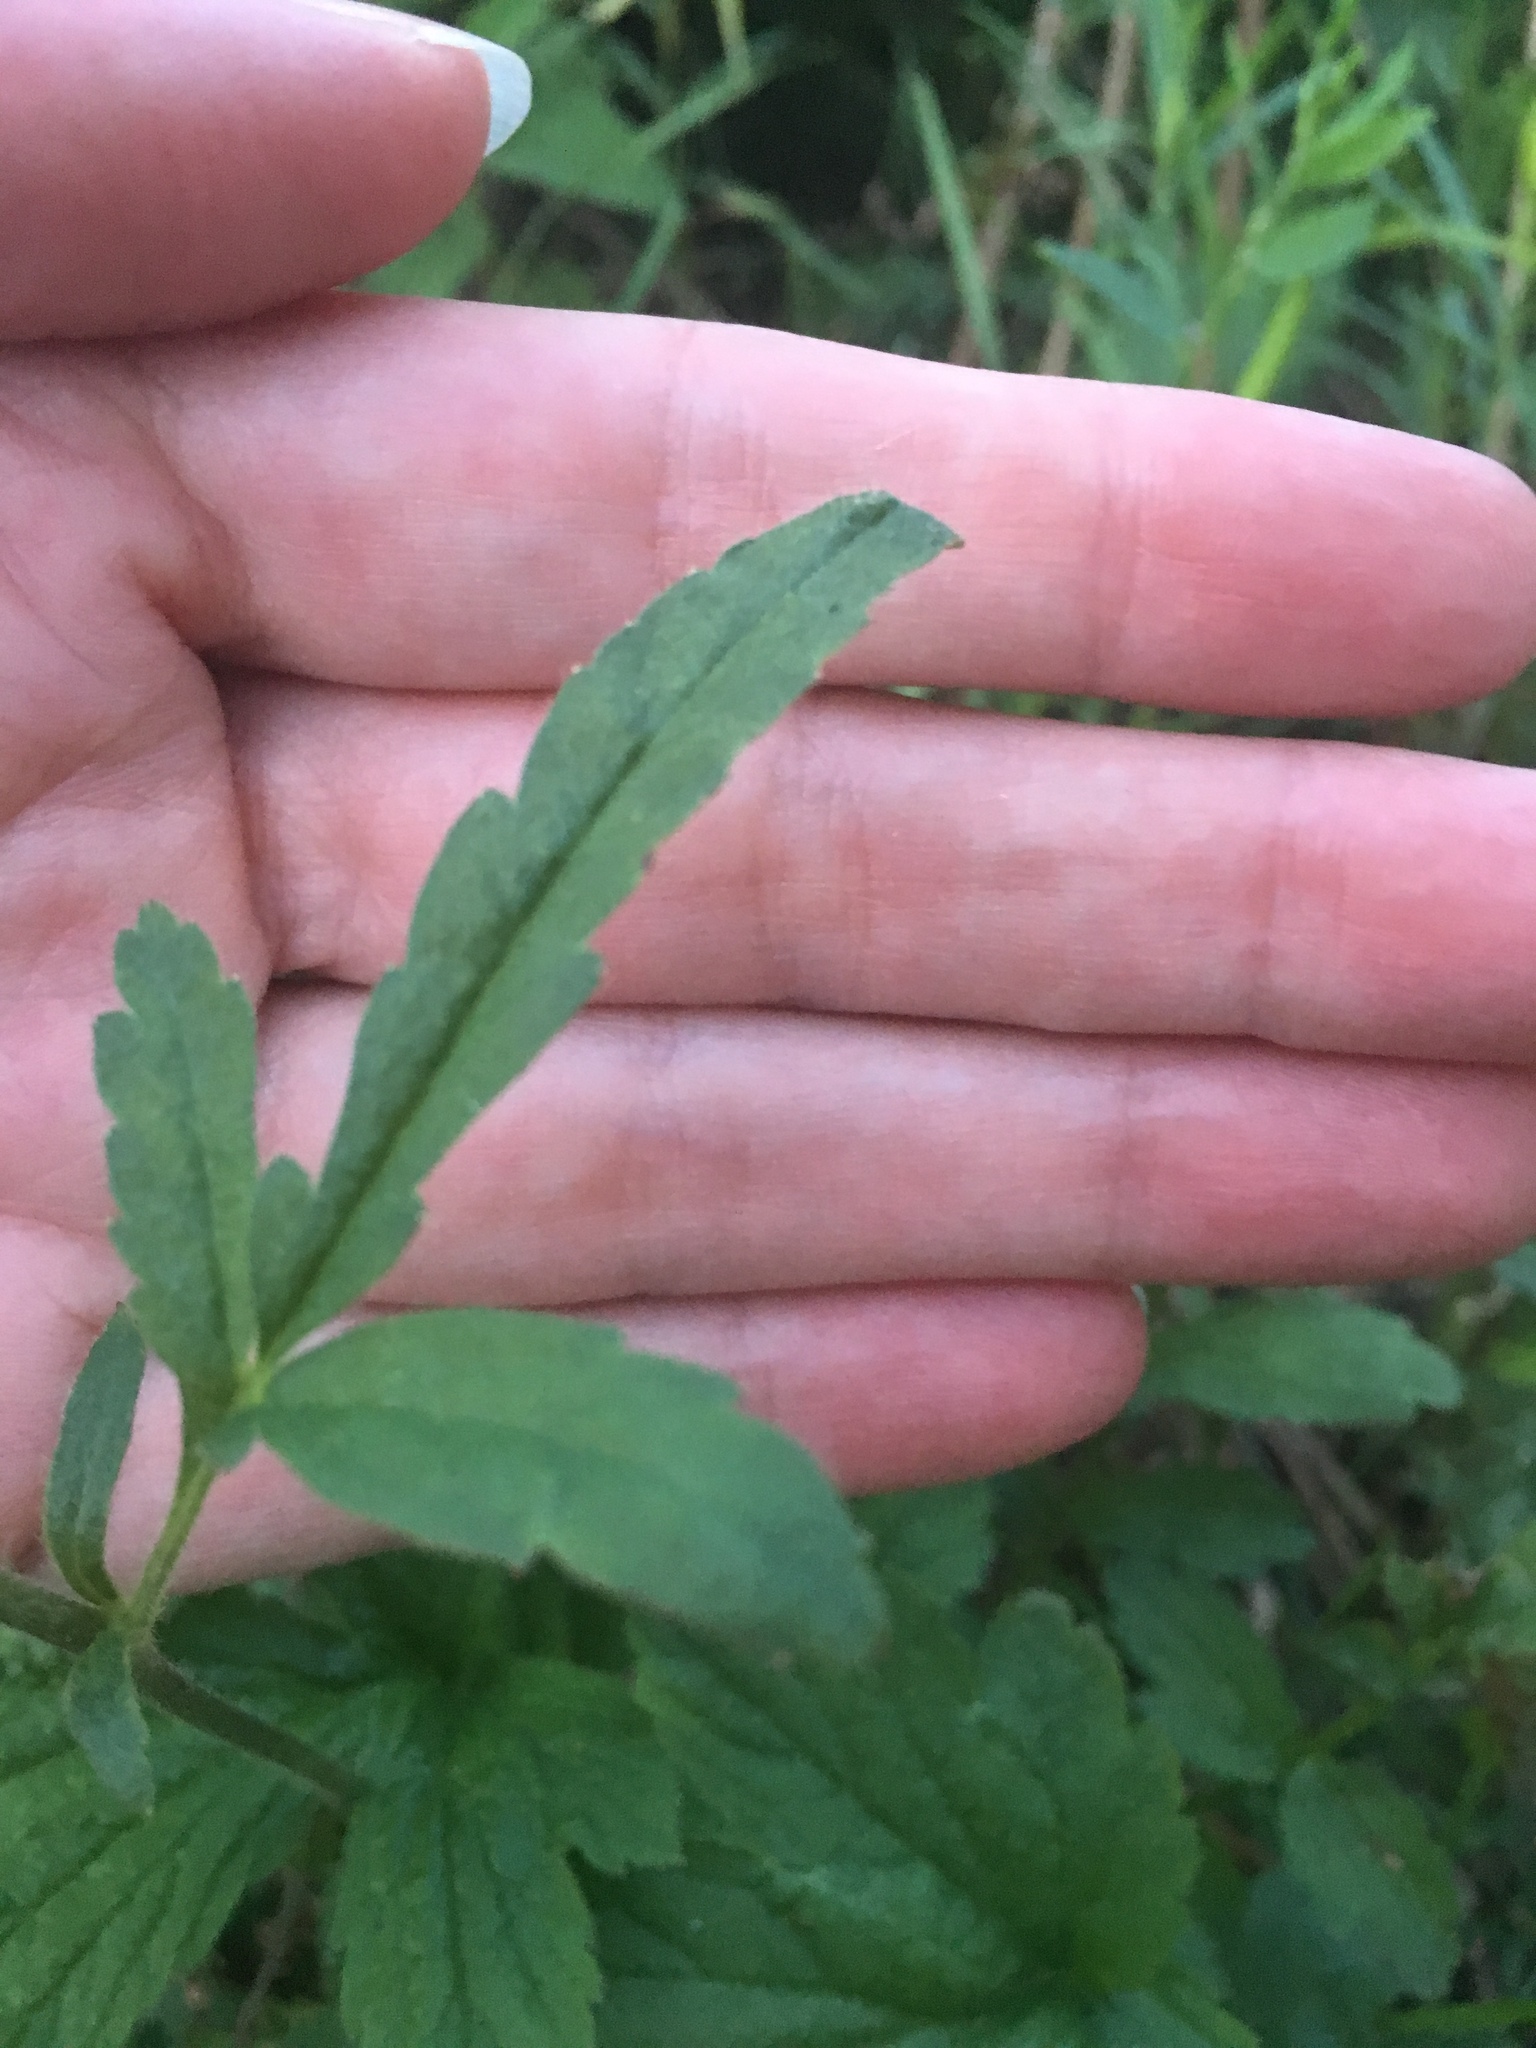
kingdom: Plantae
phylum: Tracheophyta
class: Magnoliopsida
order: Rosales
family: Rosaceae
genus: Geum
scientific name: Geum aleppicum
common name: Yellow avens
